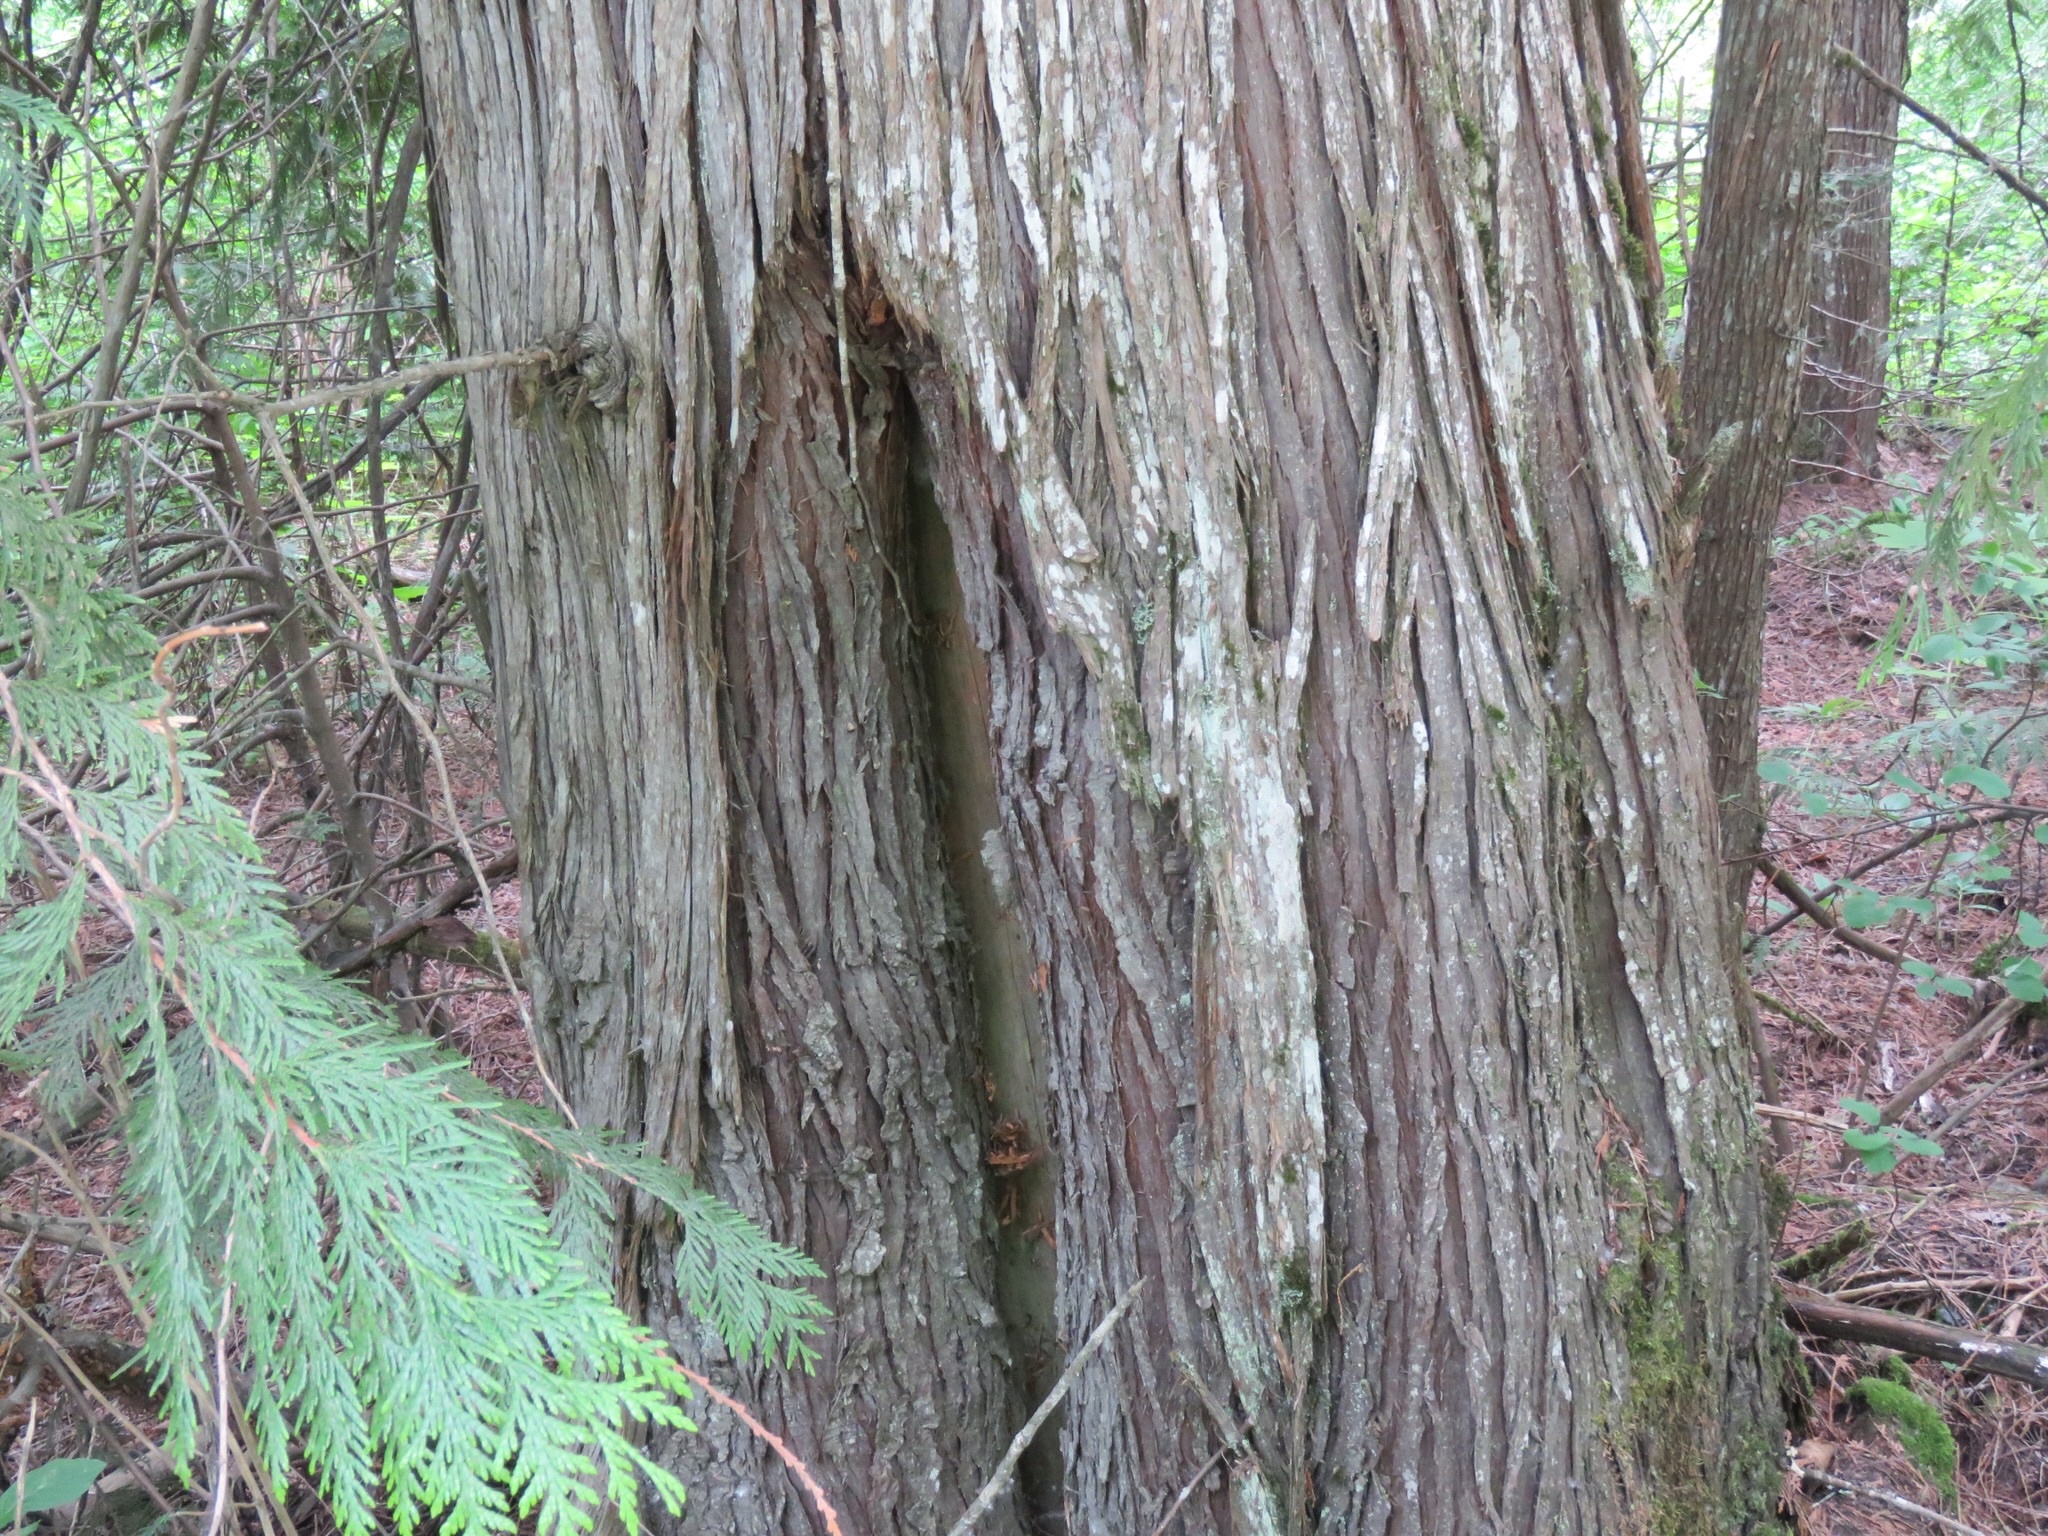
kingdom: Plantae
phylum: Tracheophyta
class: Pinopsida
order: Pinales
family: Cupressaceae
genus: Thuja
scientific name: Thuja plicata
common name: Western red-cedar
